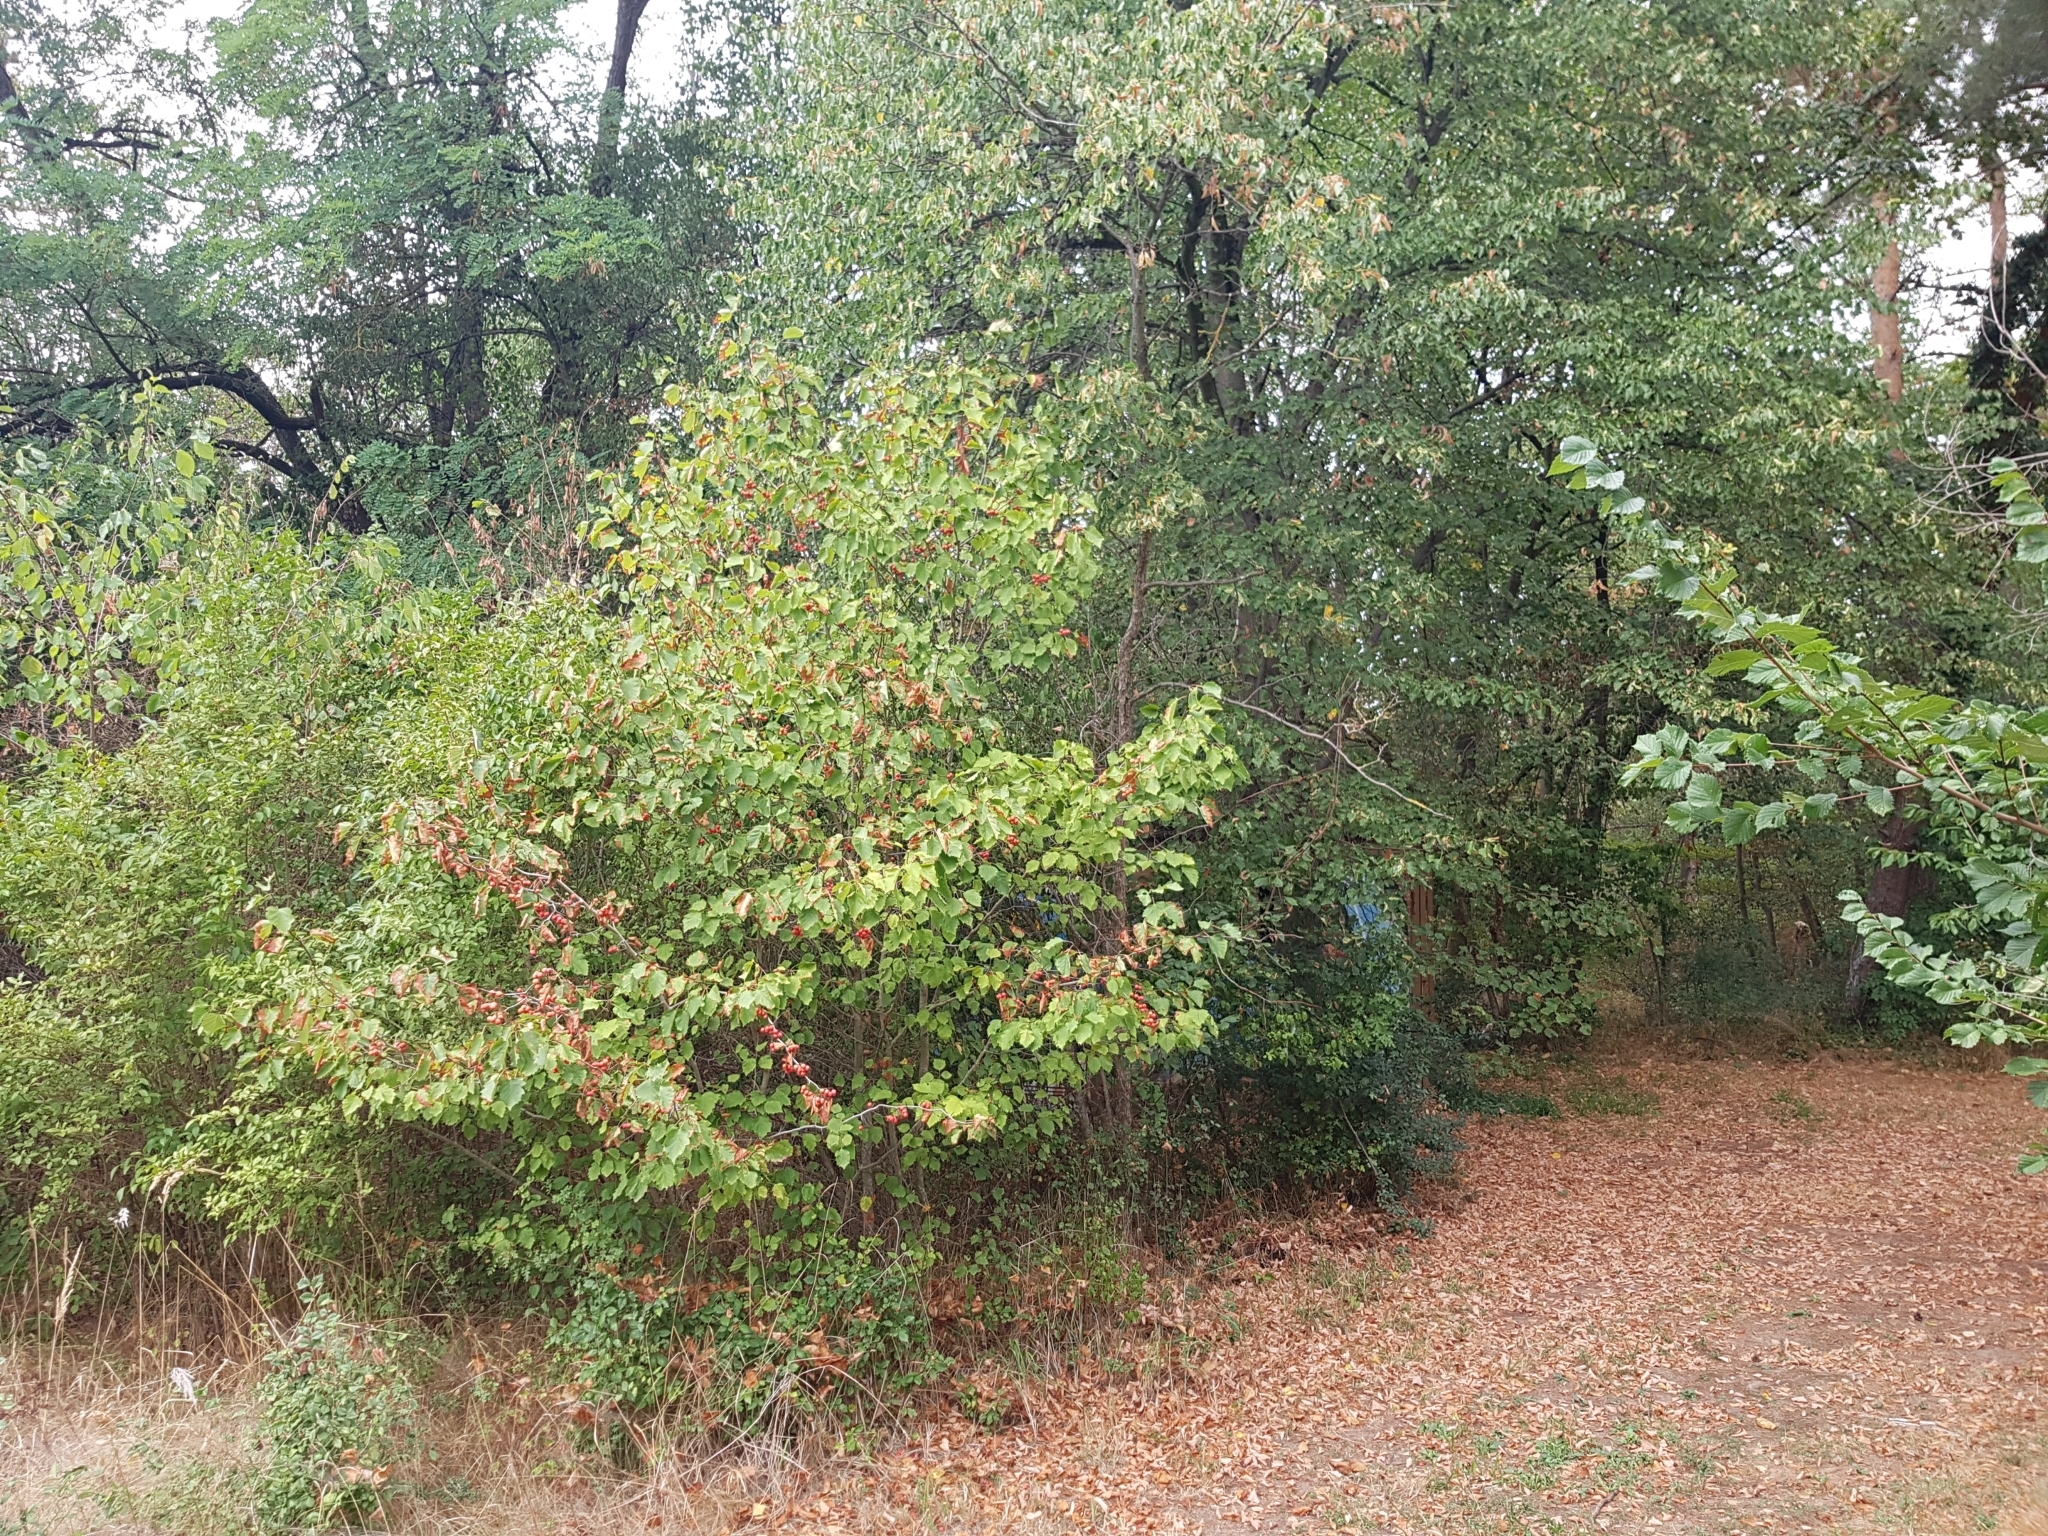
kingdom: Plantae
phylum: Tracheophyta
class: Magnoliopsida
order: Rosales
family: Rosaceae
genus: Torminalis
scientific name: Torminalis glaberrima
